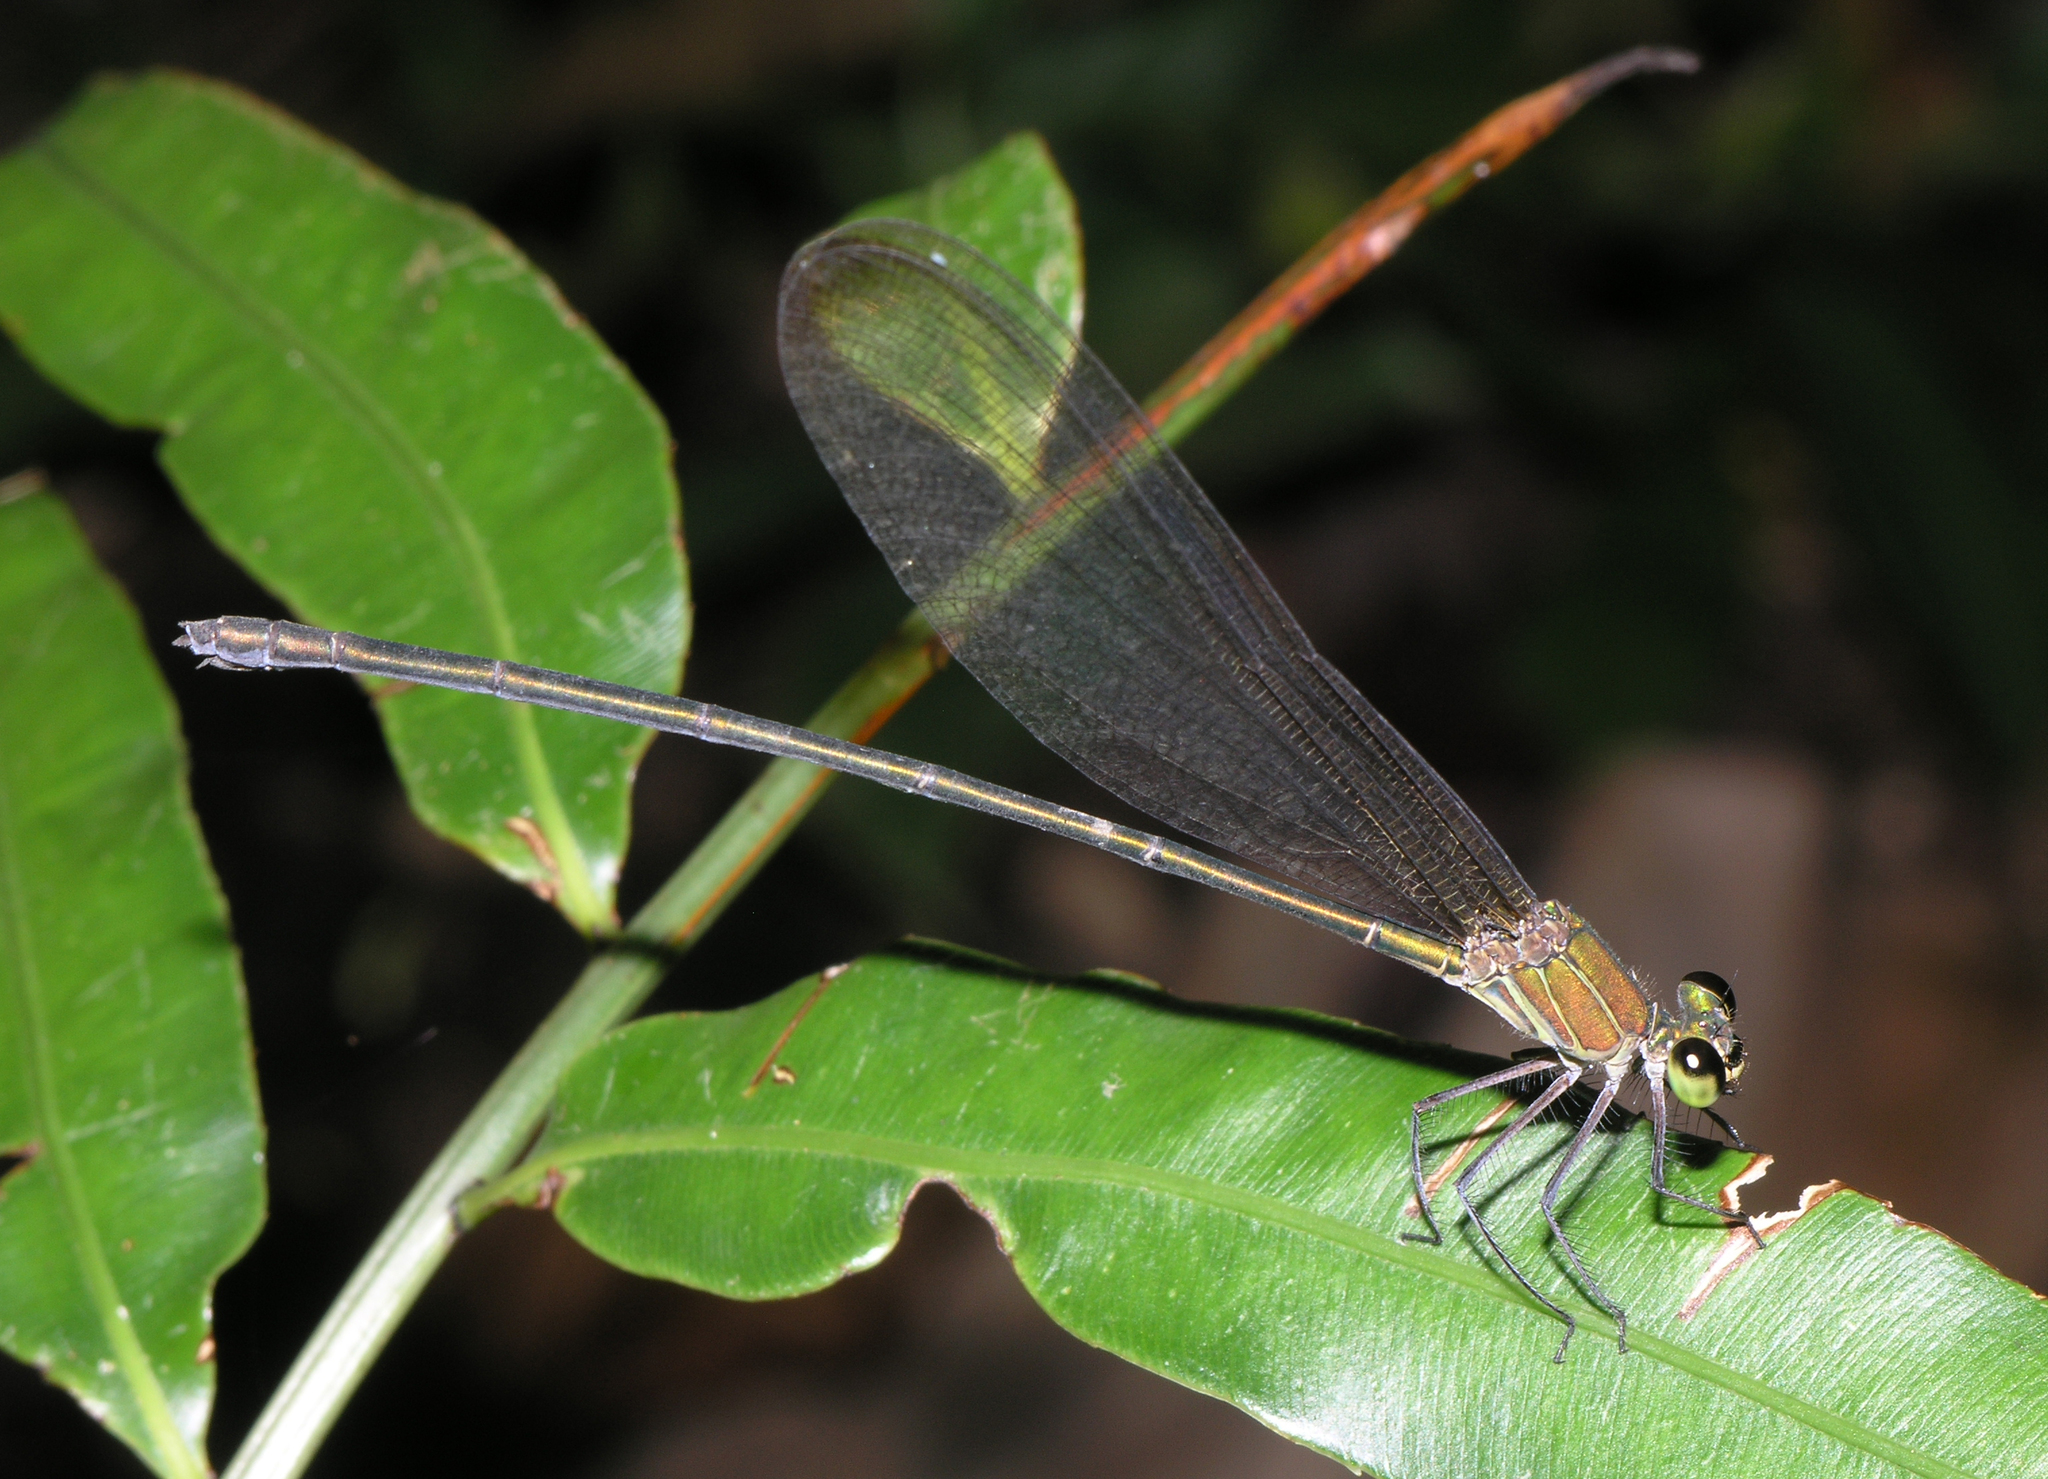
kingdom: Animalia
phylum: Arthropoda
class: Insecta
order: Odonata
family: Calopterygidae
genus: Vestalis
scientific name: Vestalis gracilis
